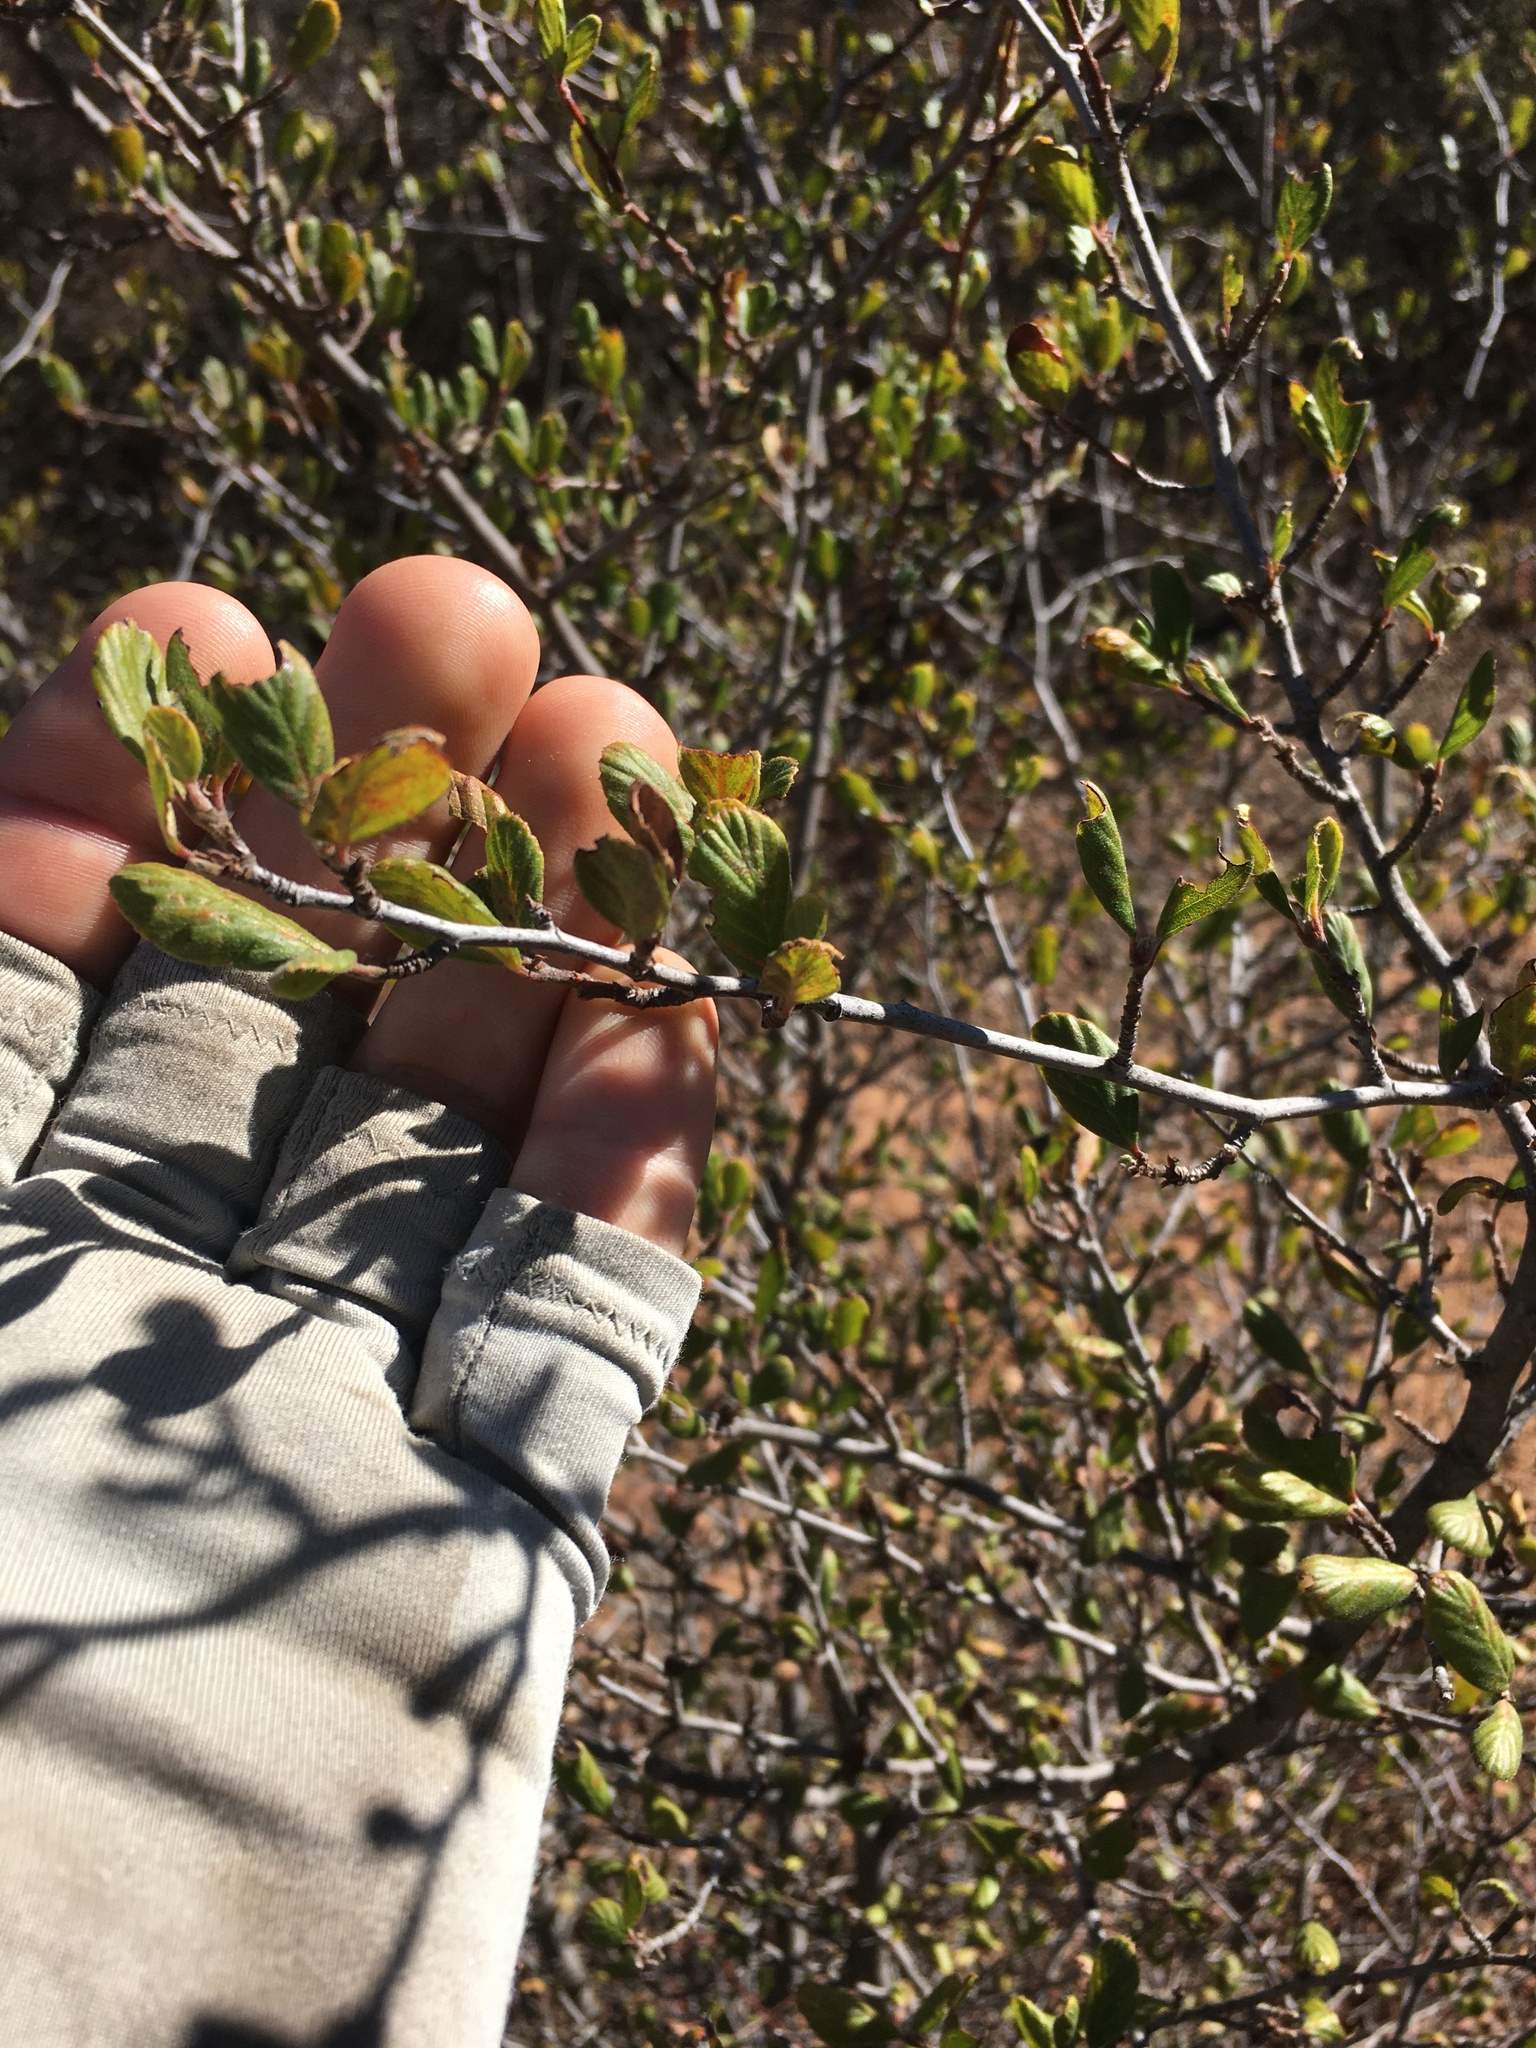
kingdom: Plantae
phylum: Tracheophyta
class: Magnoliopsida
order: Rosales
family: Rosaceae
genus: Cercocarpus
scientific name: Cercocarpus betuloides
